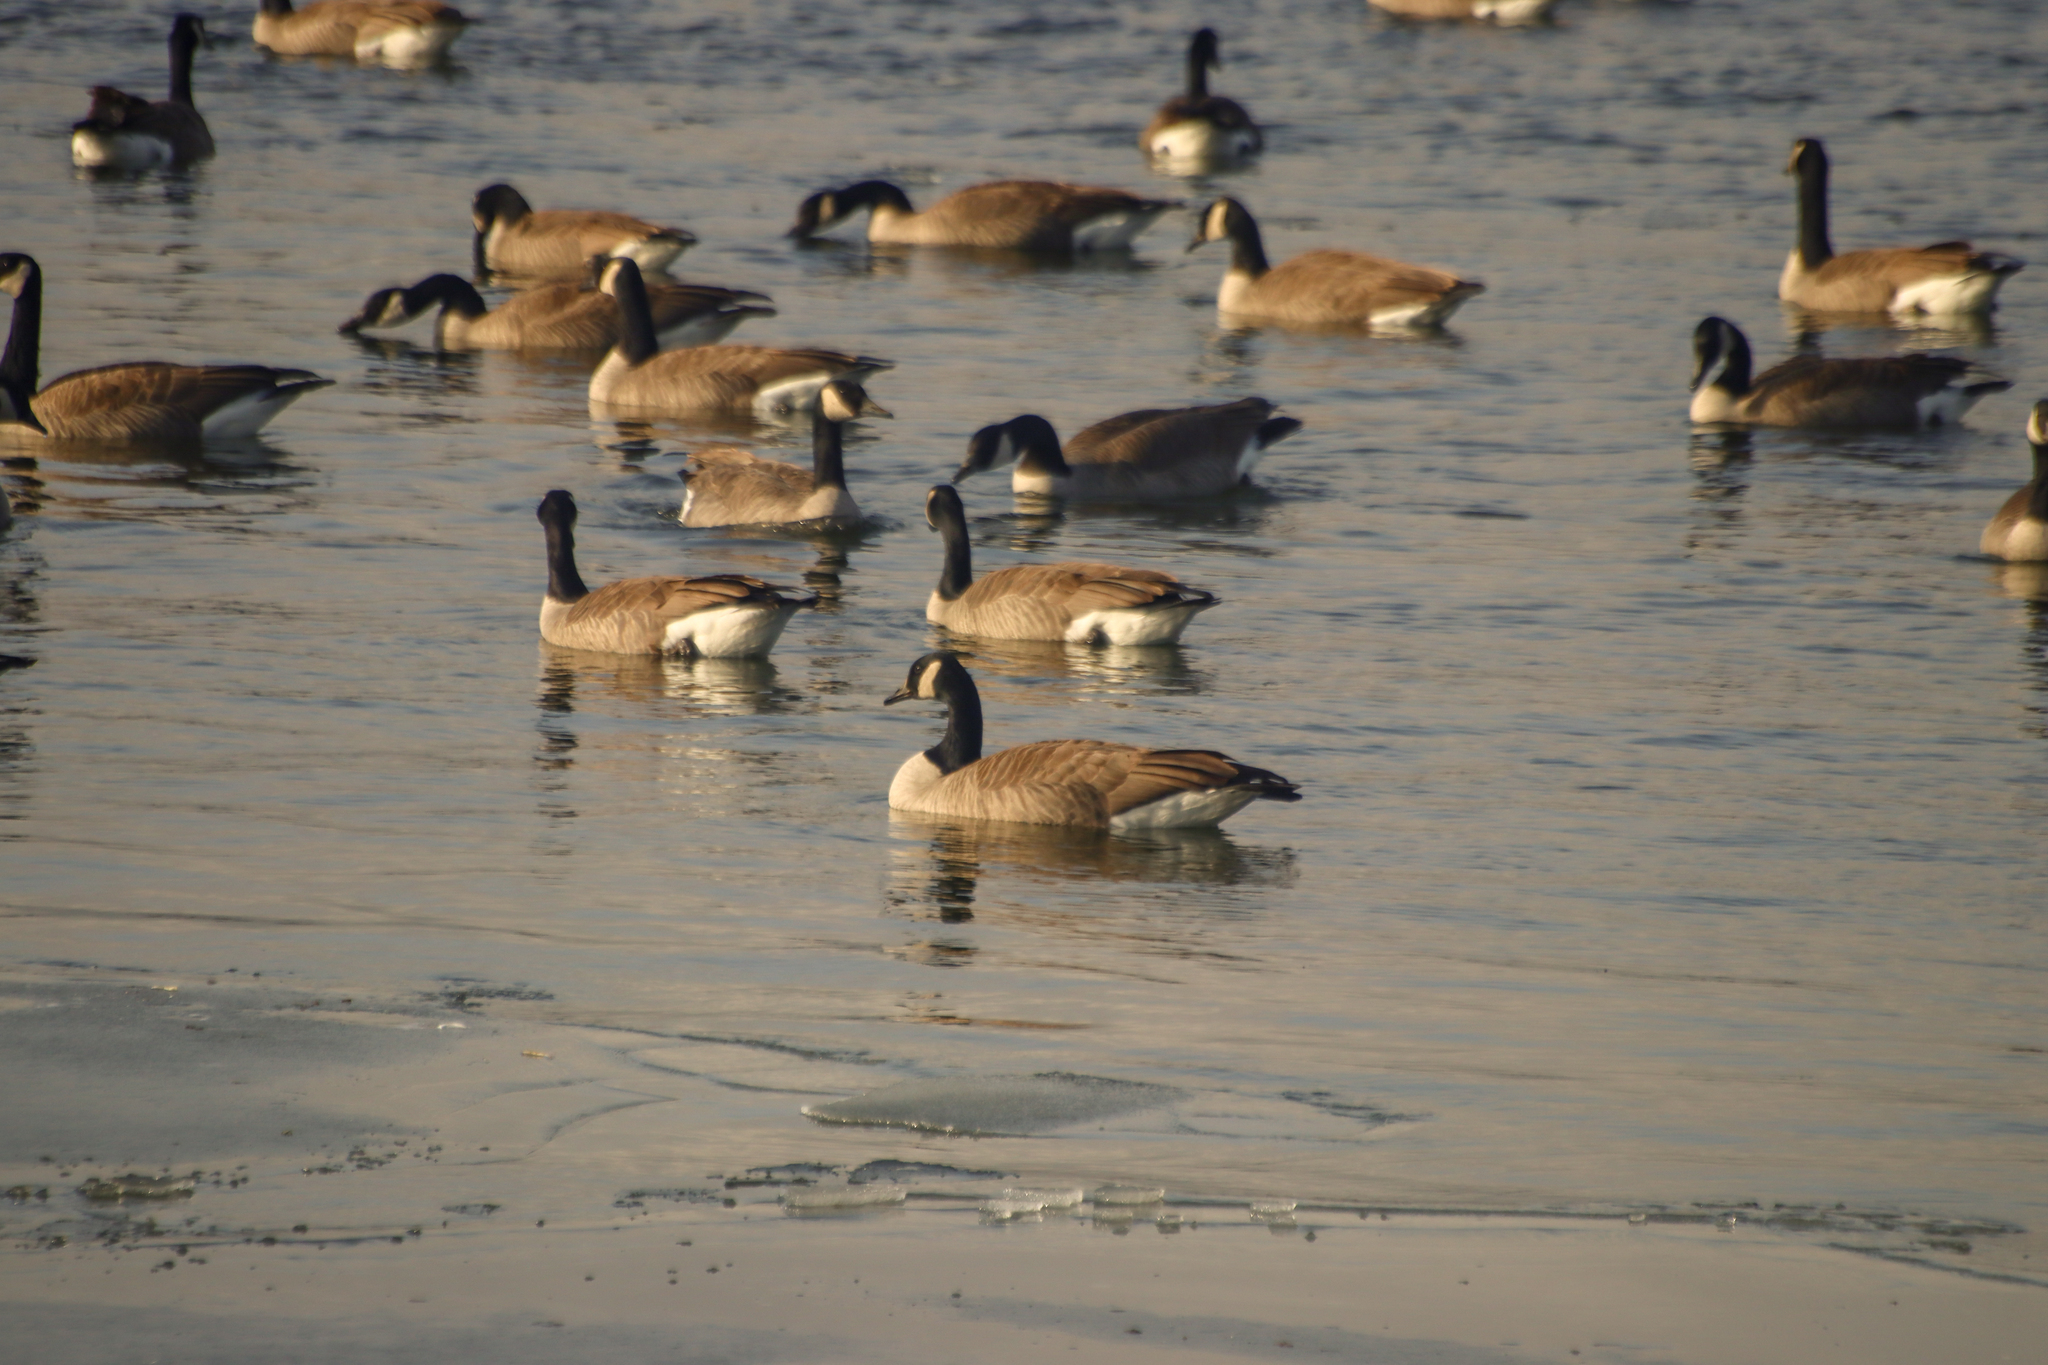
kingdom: Animalia
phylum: Chordata
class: Aves
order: Anseriformes
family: Anatidae
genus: Branta
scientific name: Branta canadensis
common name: Canada goose
